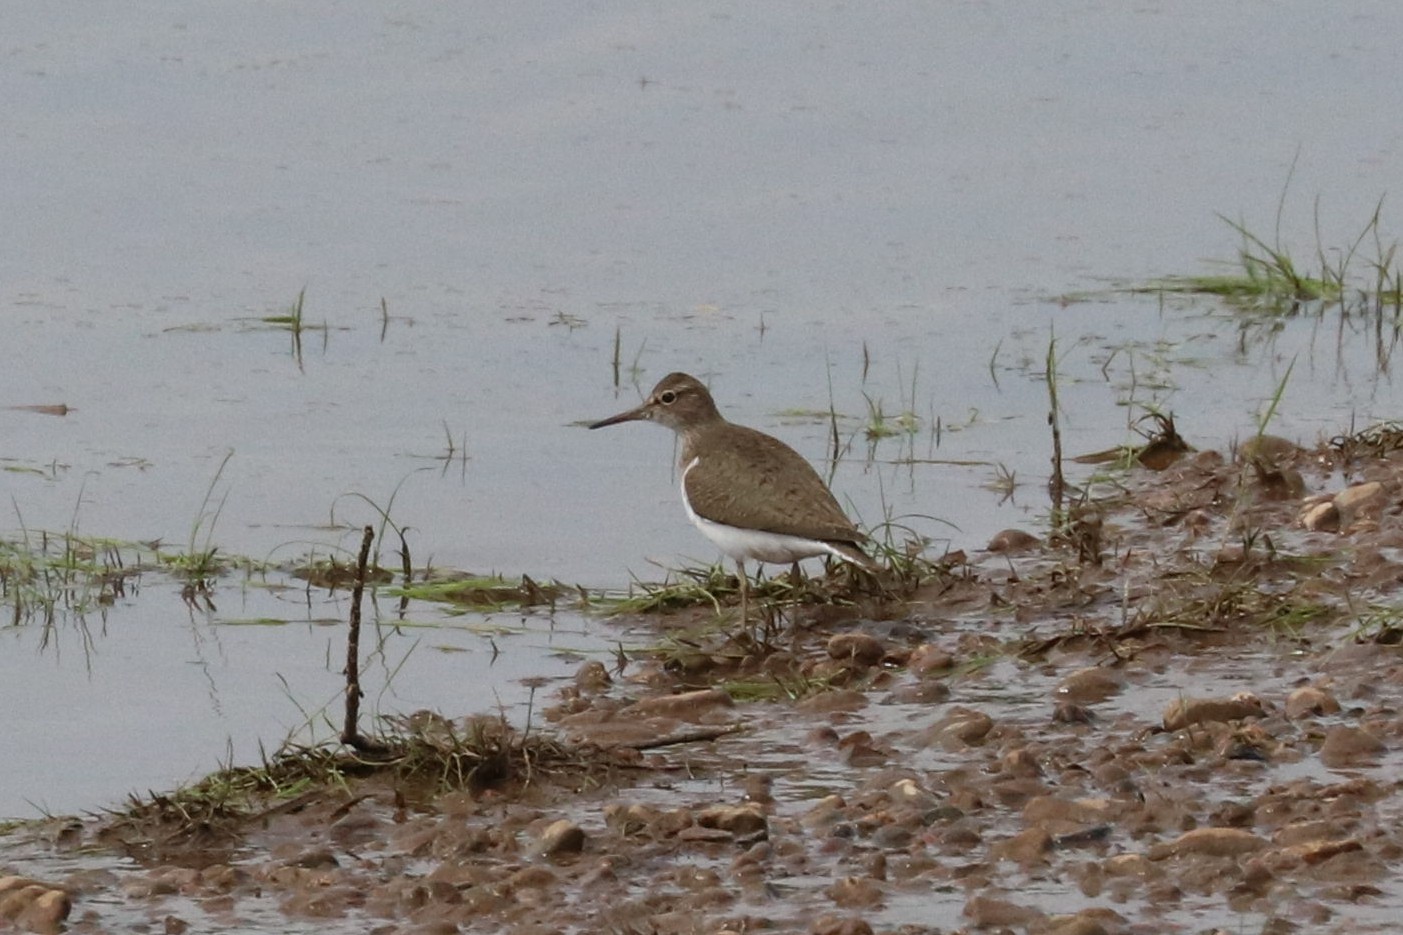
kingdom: Animalia
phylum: Chordata
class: Aves
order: Charadriiformes
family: Scolopacidae
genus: Actitis
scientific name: Actitis hypoleucos
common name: Common sandpiper
